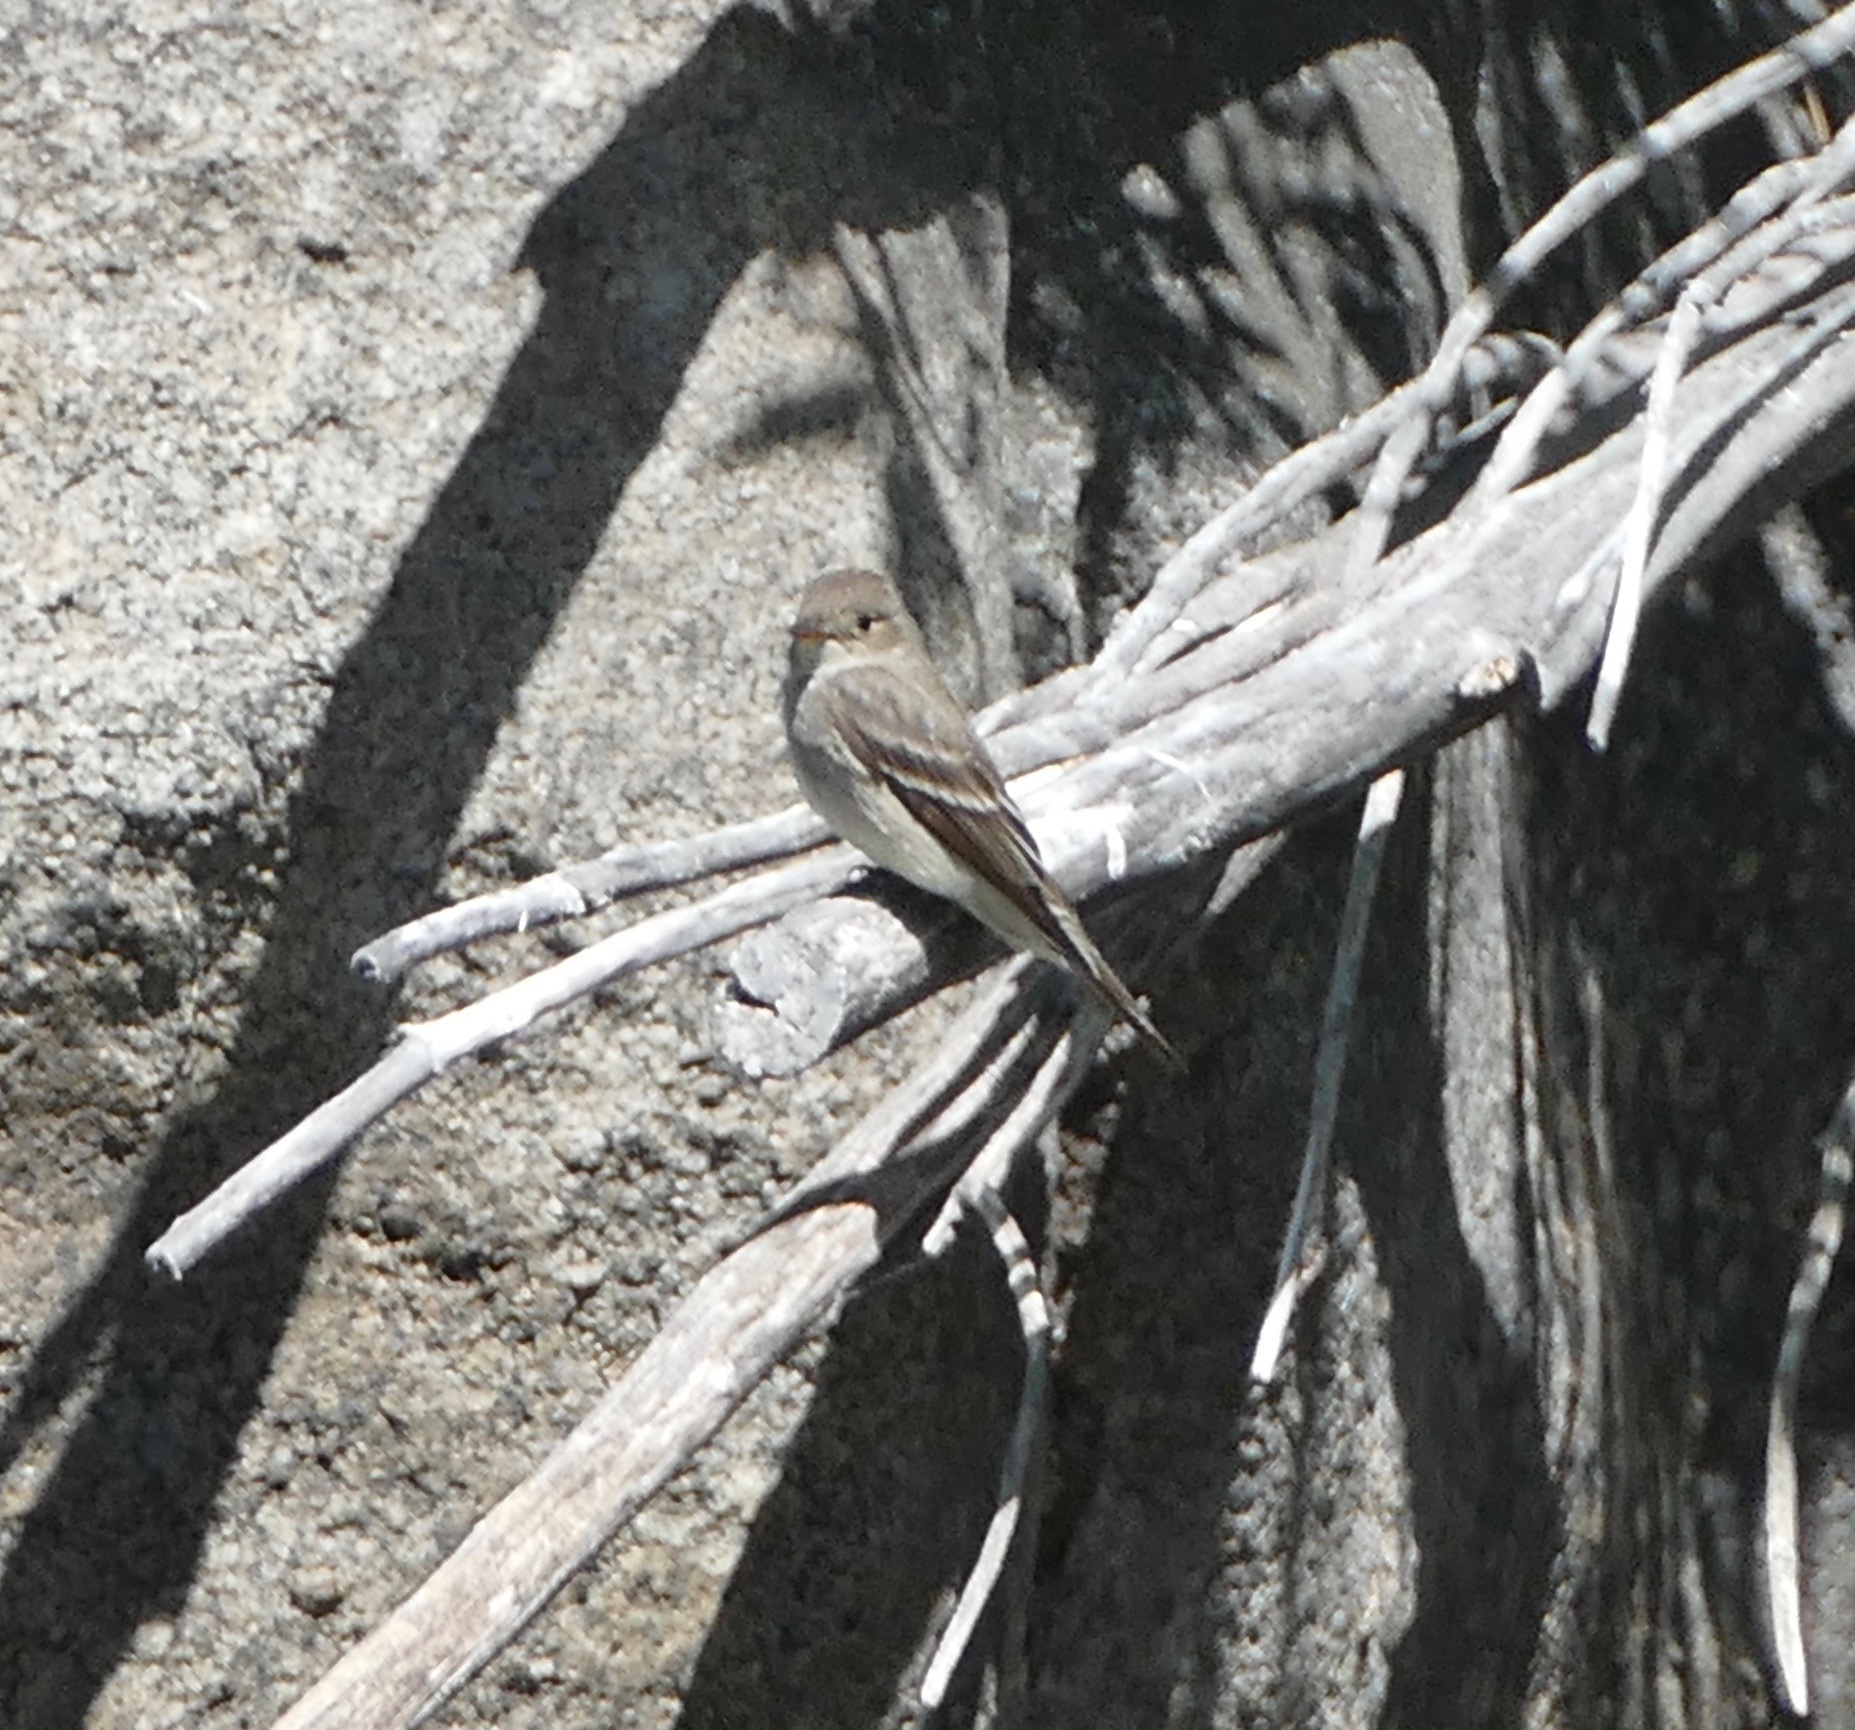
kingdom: Animalia
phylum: Chordata
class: Aves
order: Passeriformes
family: Tyrannidae
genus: Contopus
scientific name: Contopus sordidulus
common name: Western wood-pewee
